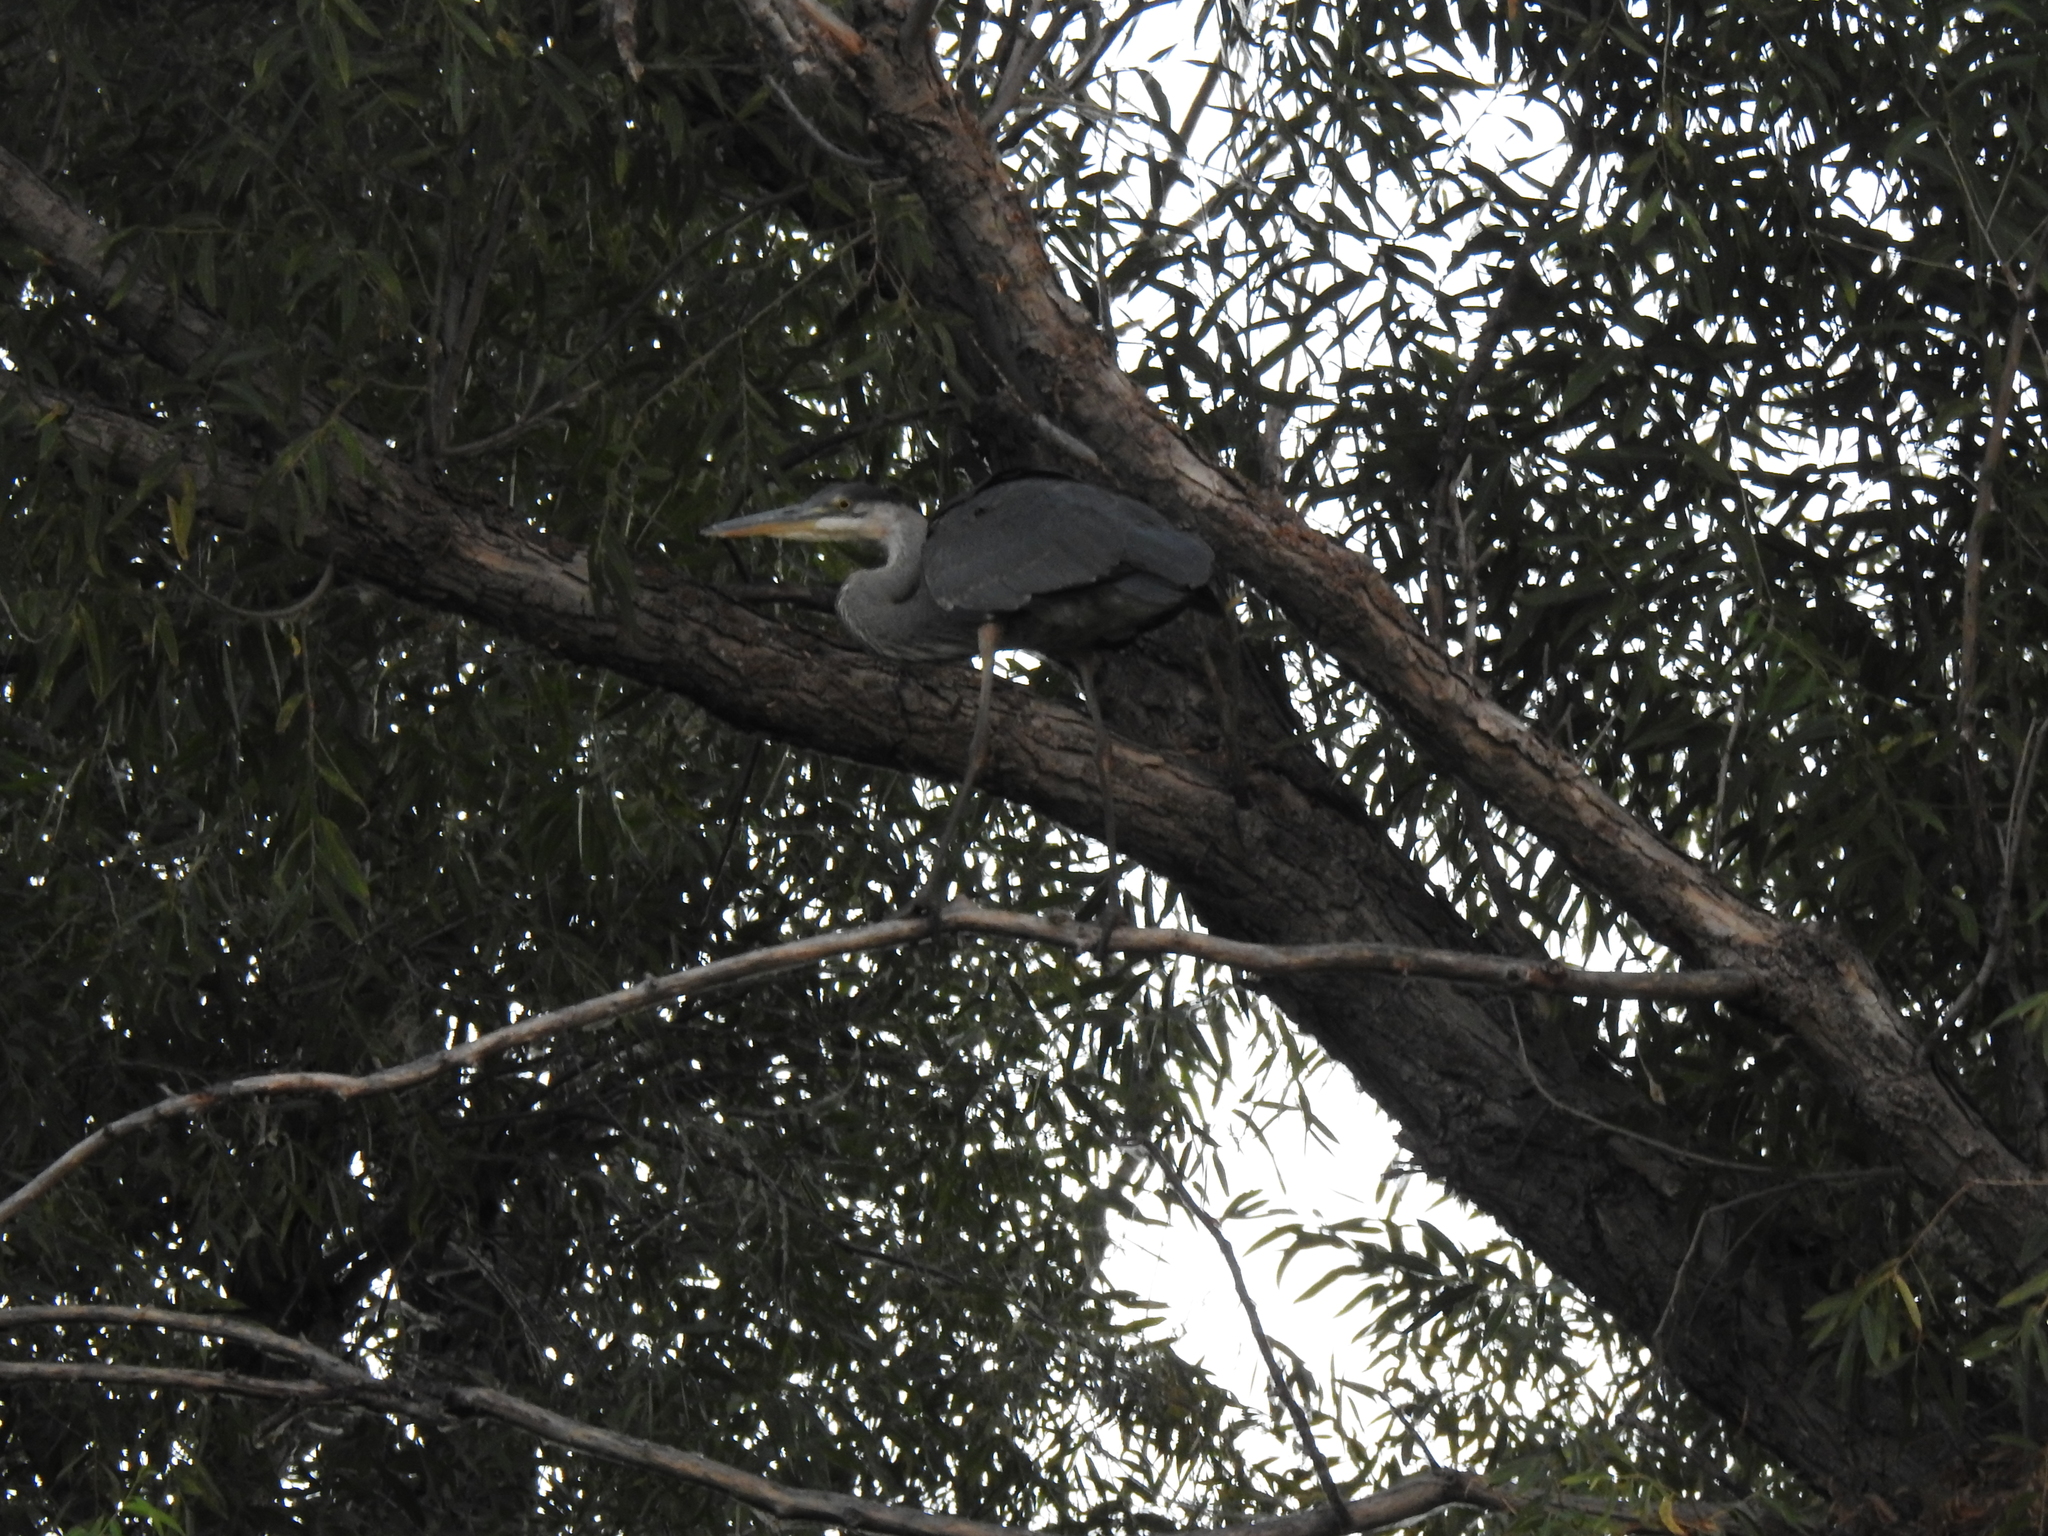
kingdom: Animalia
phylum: Chordata
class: Aves
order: Pelecaniformes
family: Ardeidae
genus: Ardea
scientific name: Ardea herodias
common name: Great blue heron
